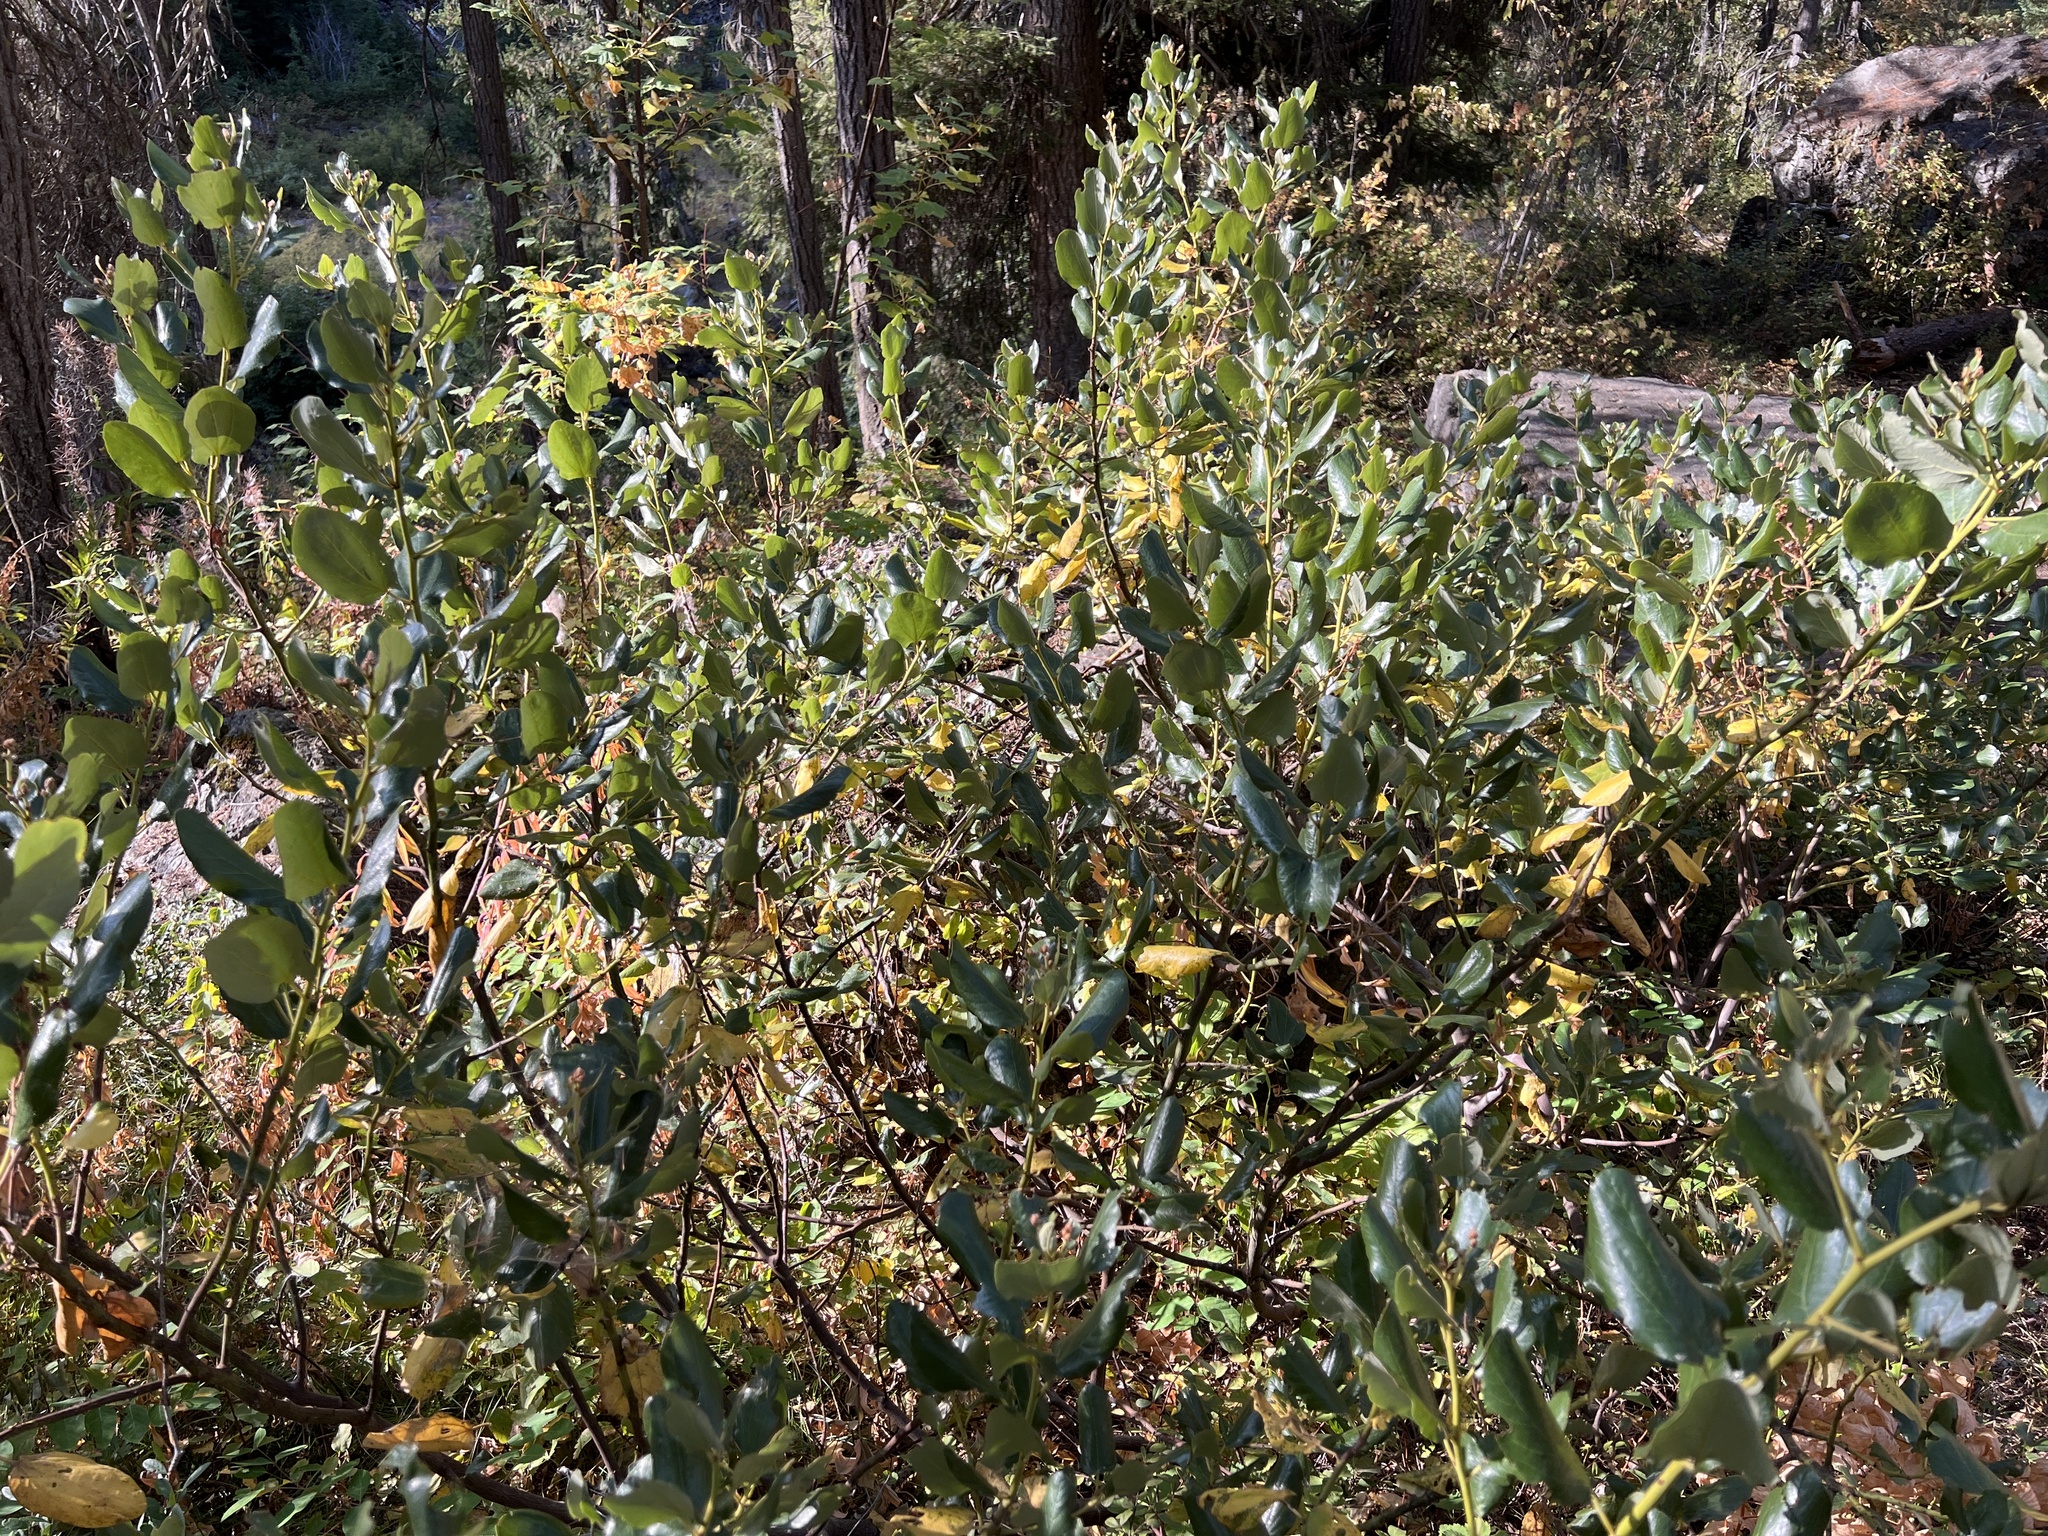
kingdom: Plantae
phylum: Tracheophyta
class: Magnoliopsida
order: Rosales
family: Rhamnaceae
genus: Ceanothus
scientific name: Ceanothus velutinus
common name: Snowbrush
